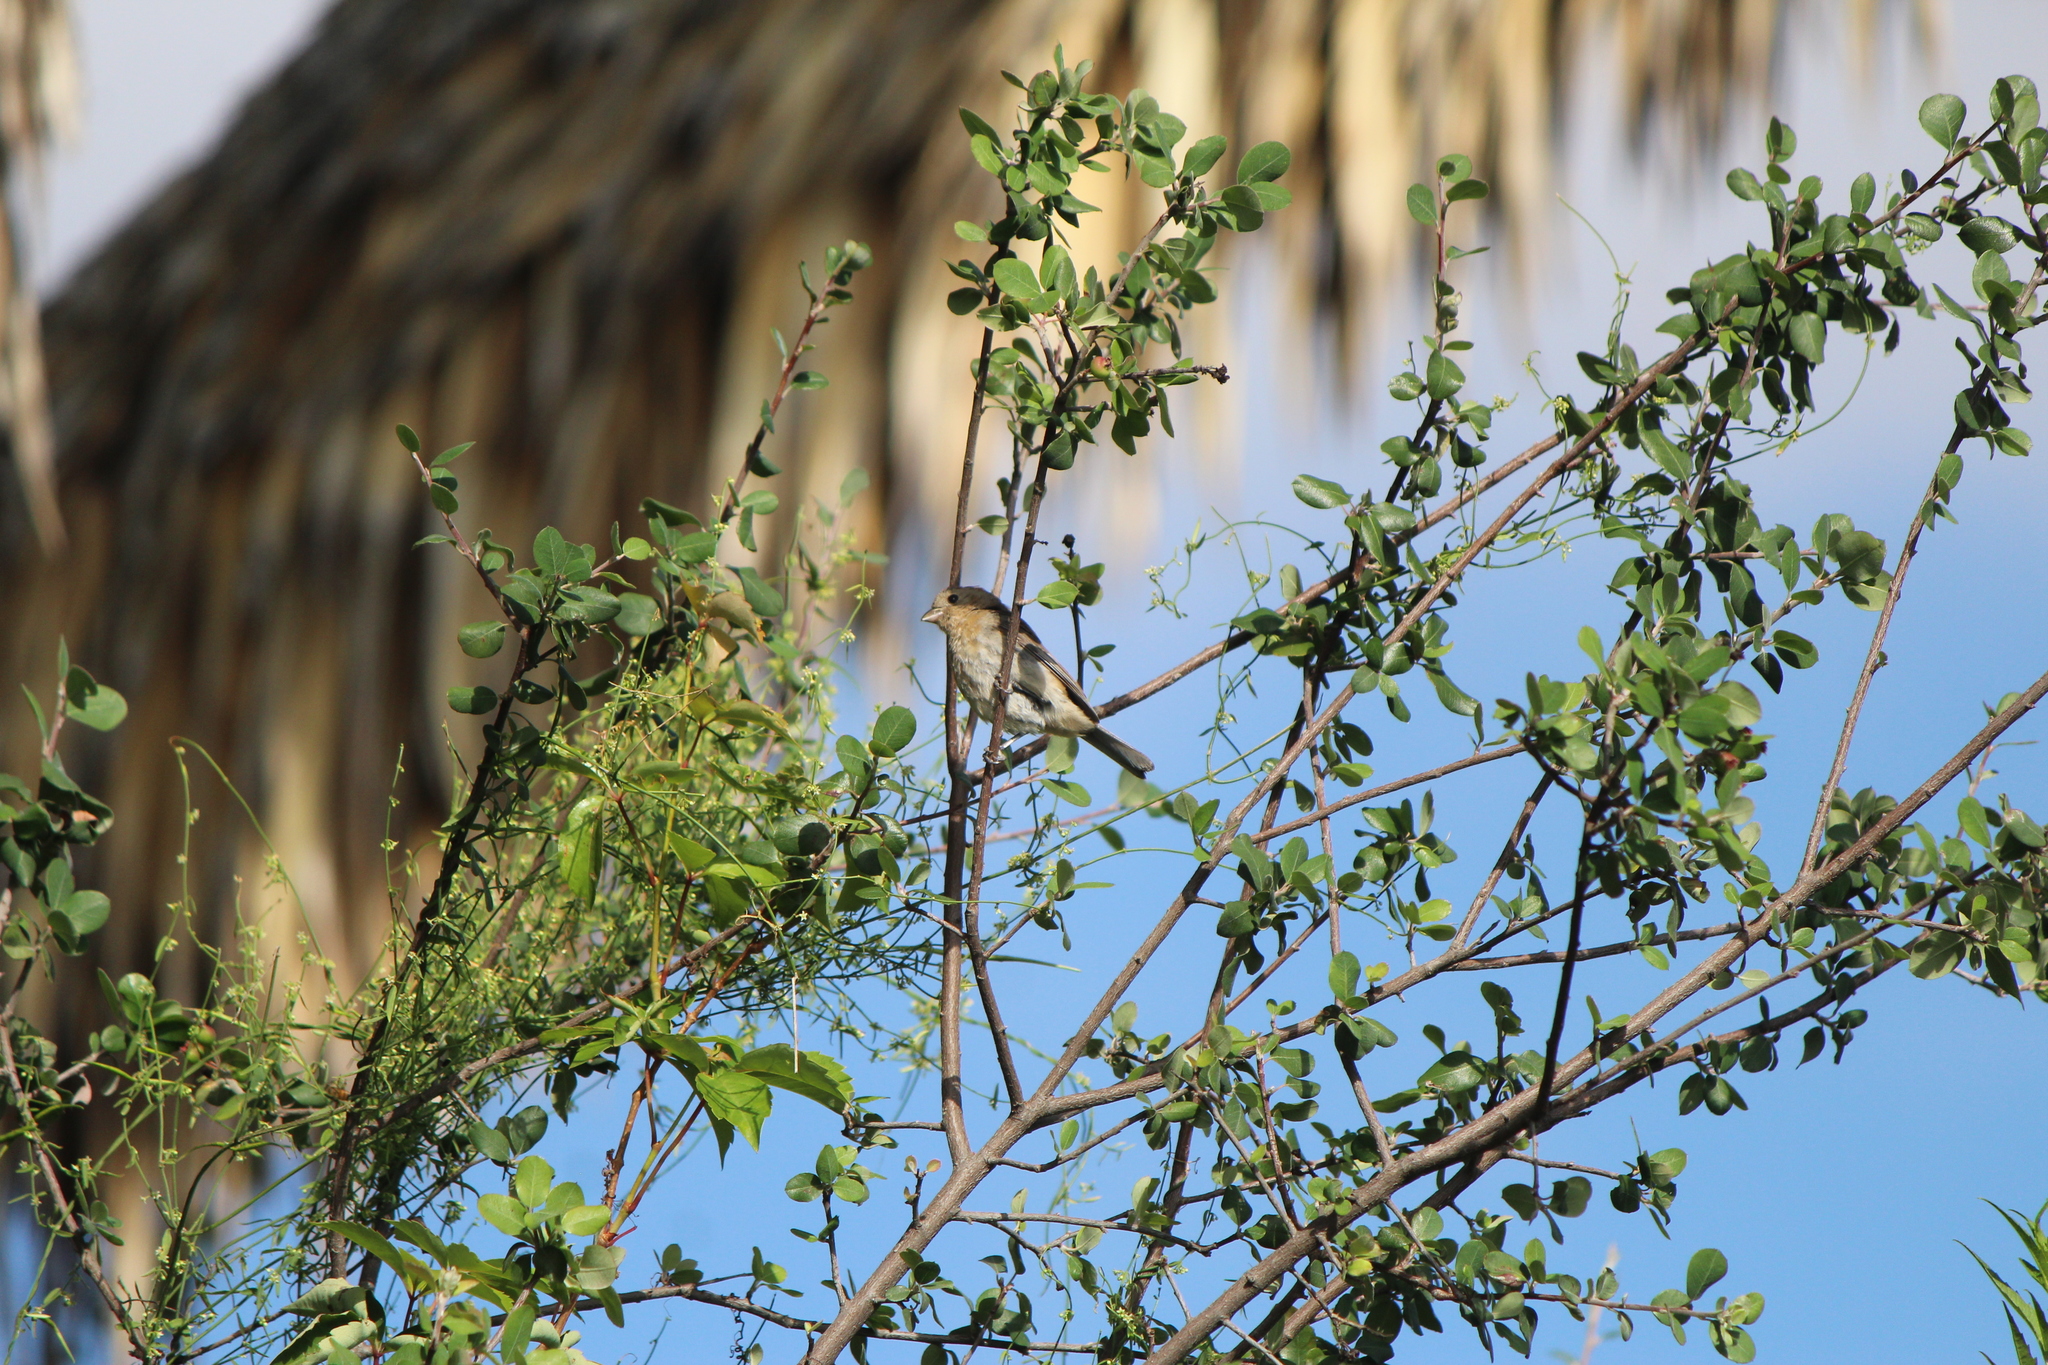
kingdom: Animalia
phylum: Chordata
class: Aves
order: Passeriformes
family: Cardinalidae
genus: Passerina
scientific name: Passerina cyanea
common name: Indigo bunting
